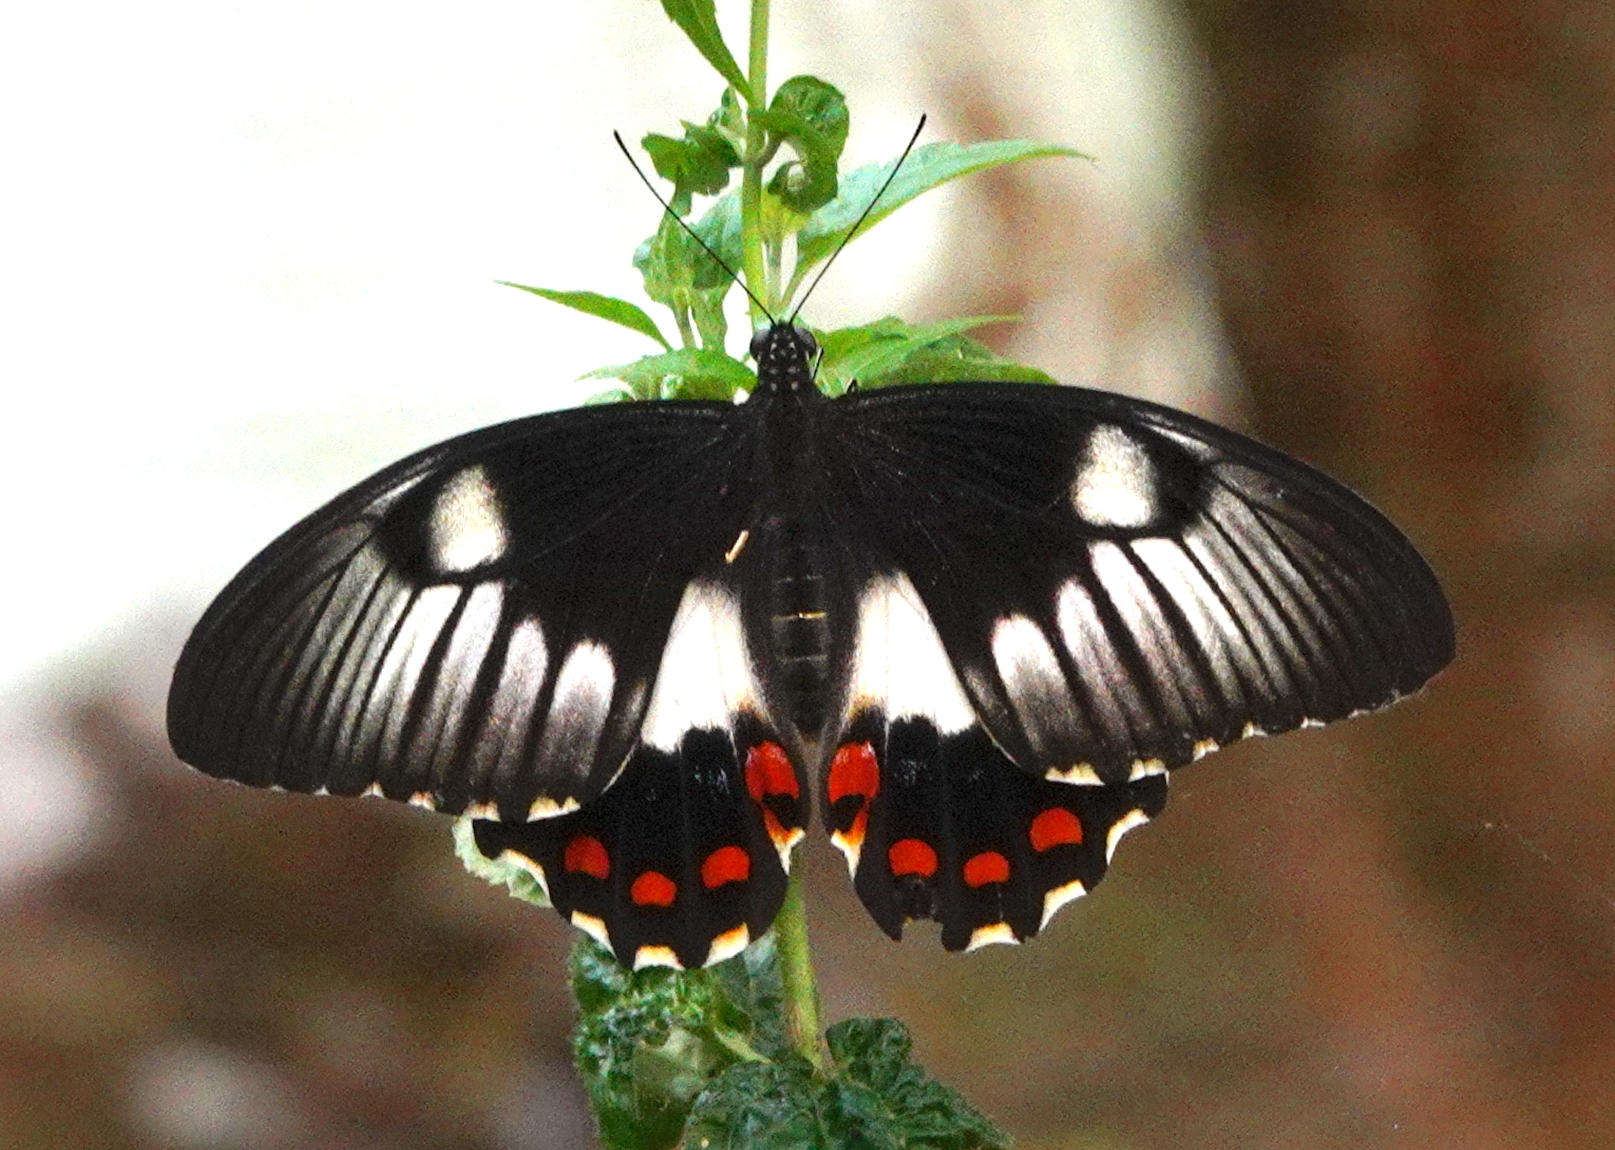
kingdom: Animalia
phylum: Arthropoda
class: Insecta
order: Lepidoptera
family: Papilionidae
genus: Papilio
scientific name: Papilio aegeus
